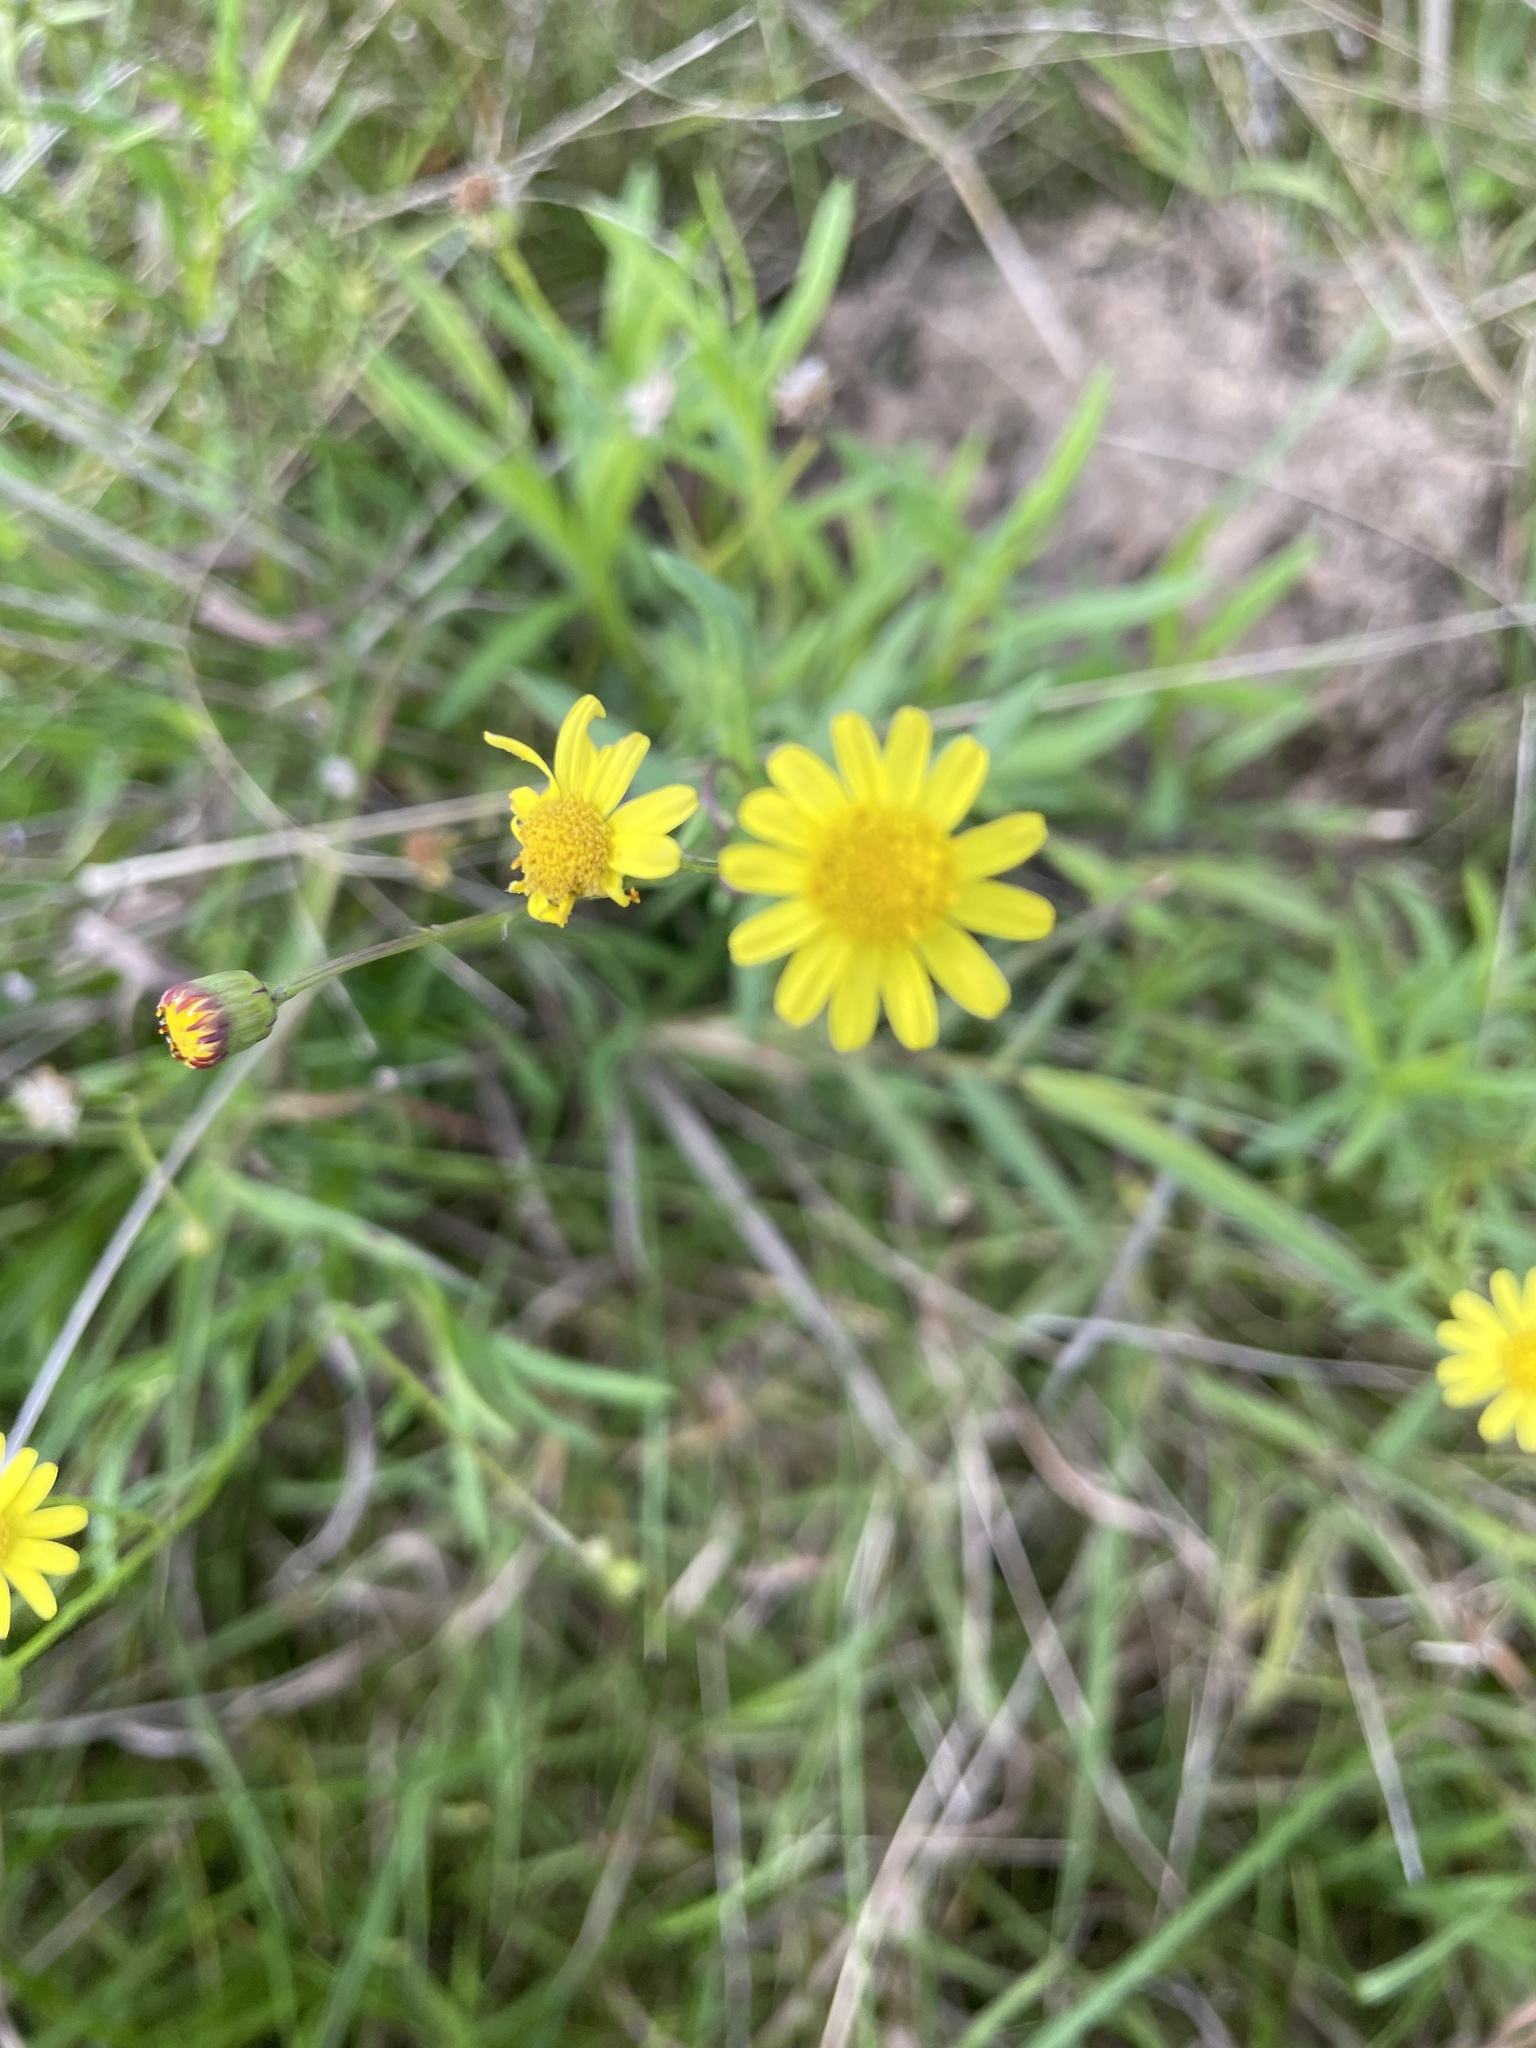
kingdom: Plantae
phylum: Tracheophyta
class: Magnoliopsida
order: Asterales
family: Asteraceae
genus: Senecio
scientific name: Senecio madagascariensis
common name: Madagascar ragwort
